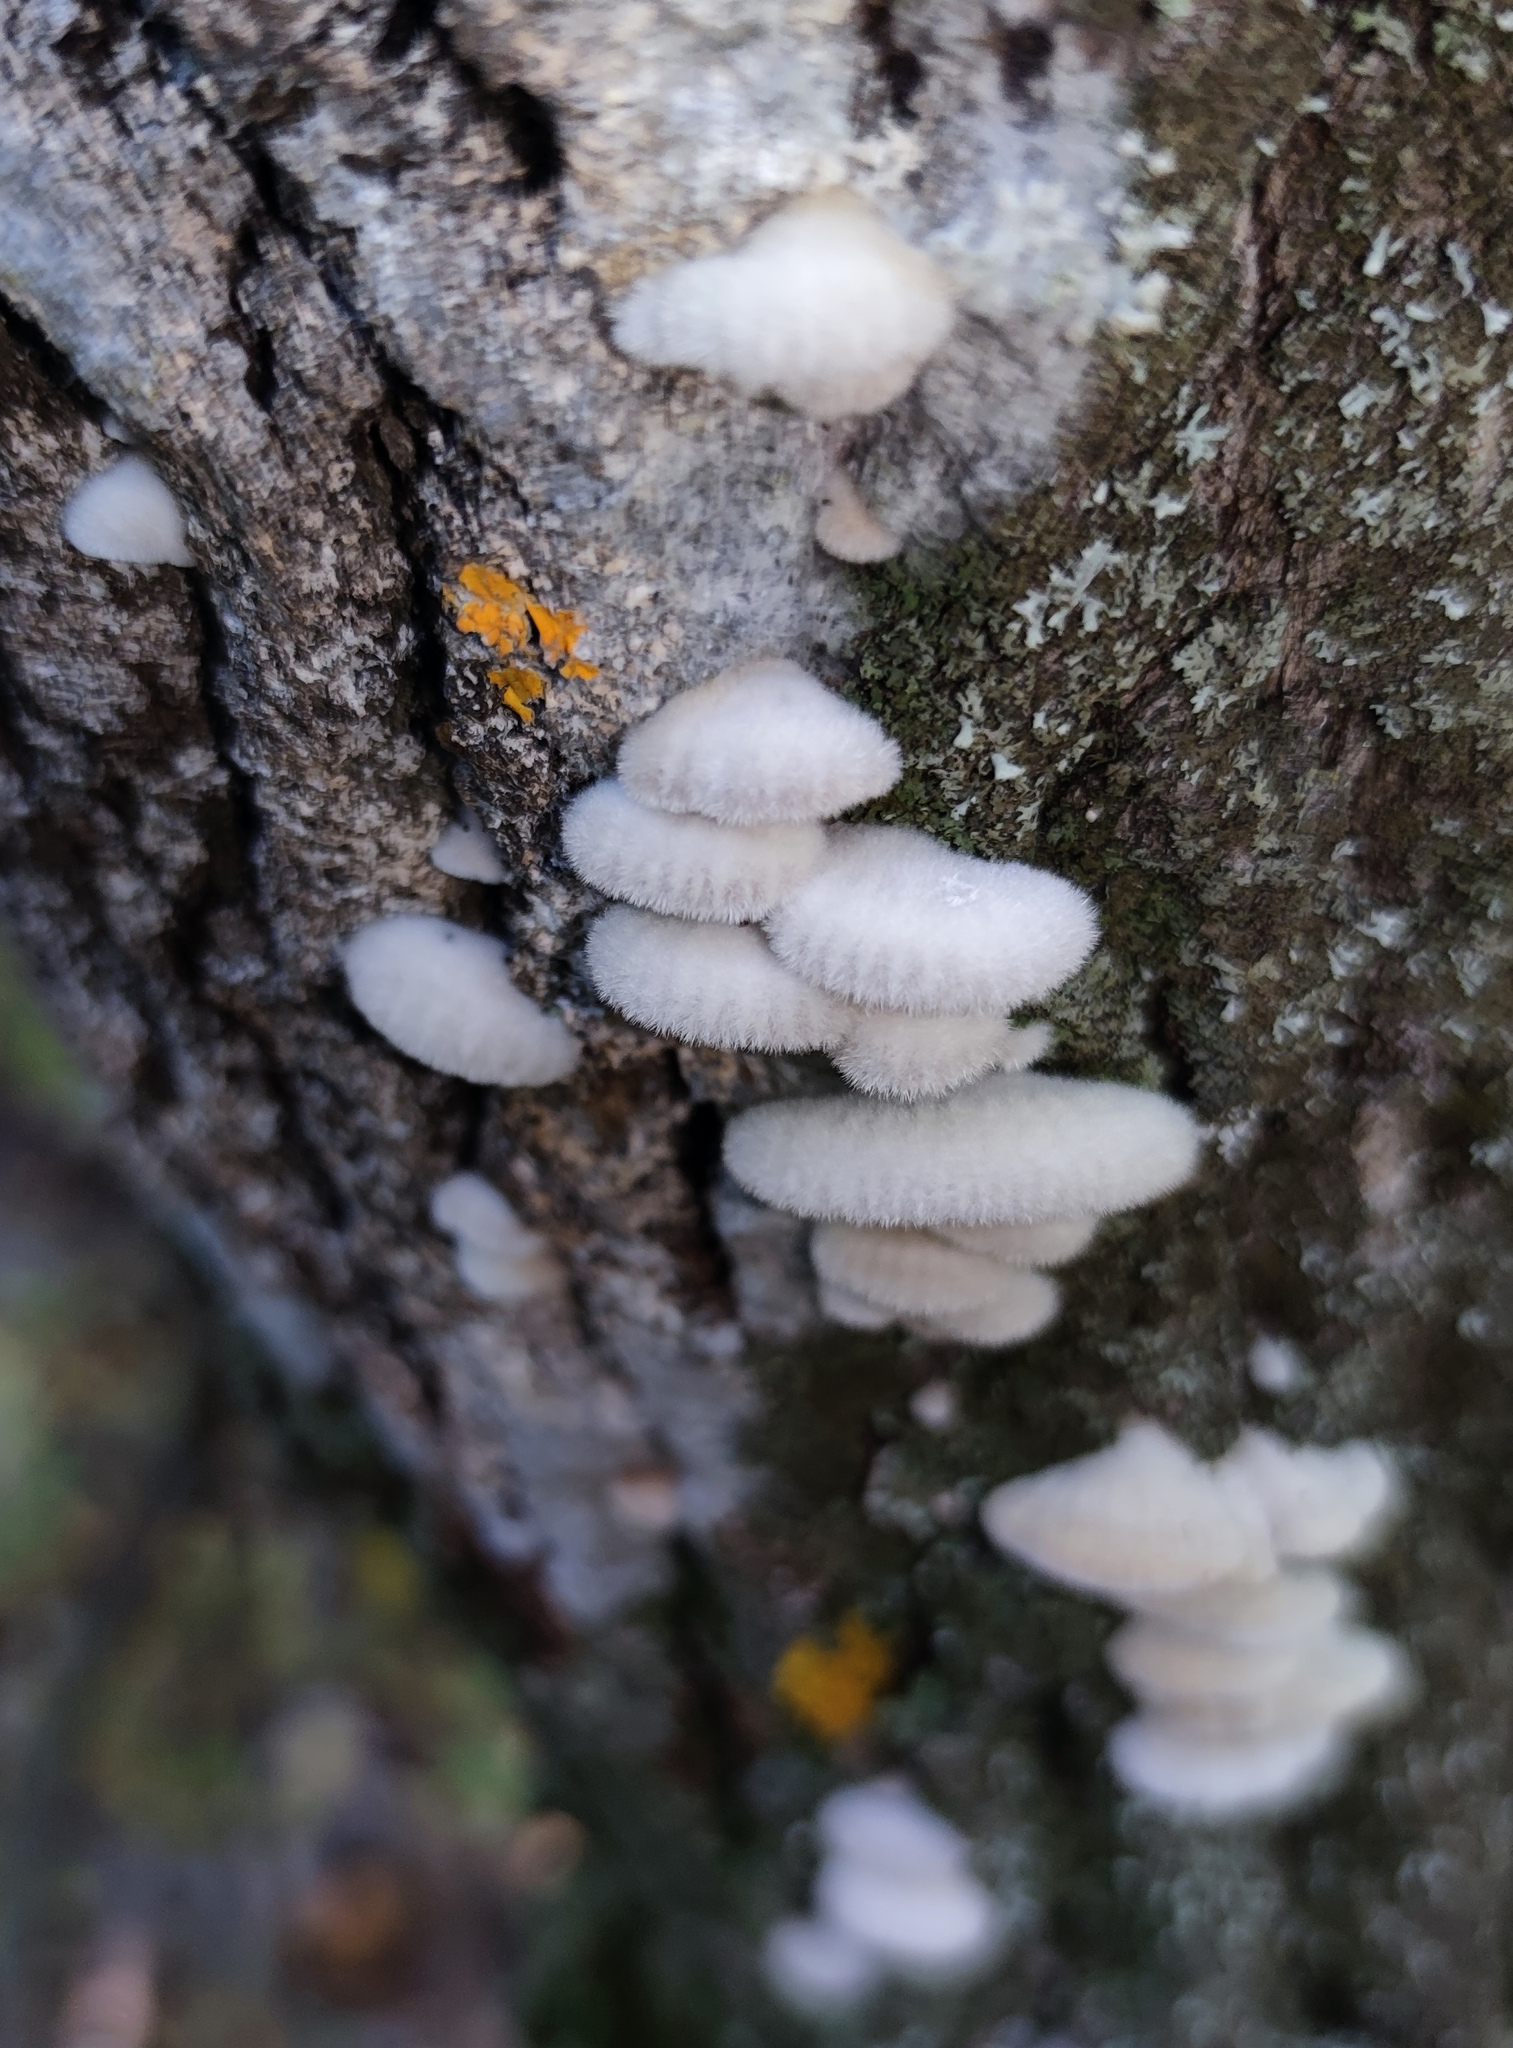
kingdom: Fungi
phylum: Basidiomycota
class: Agaricomycetes
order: Agaricales
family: Schizophyllaceae
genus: Schizophyllum
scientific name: Schizophyllum commune
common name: Common porecrust
